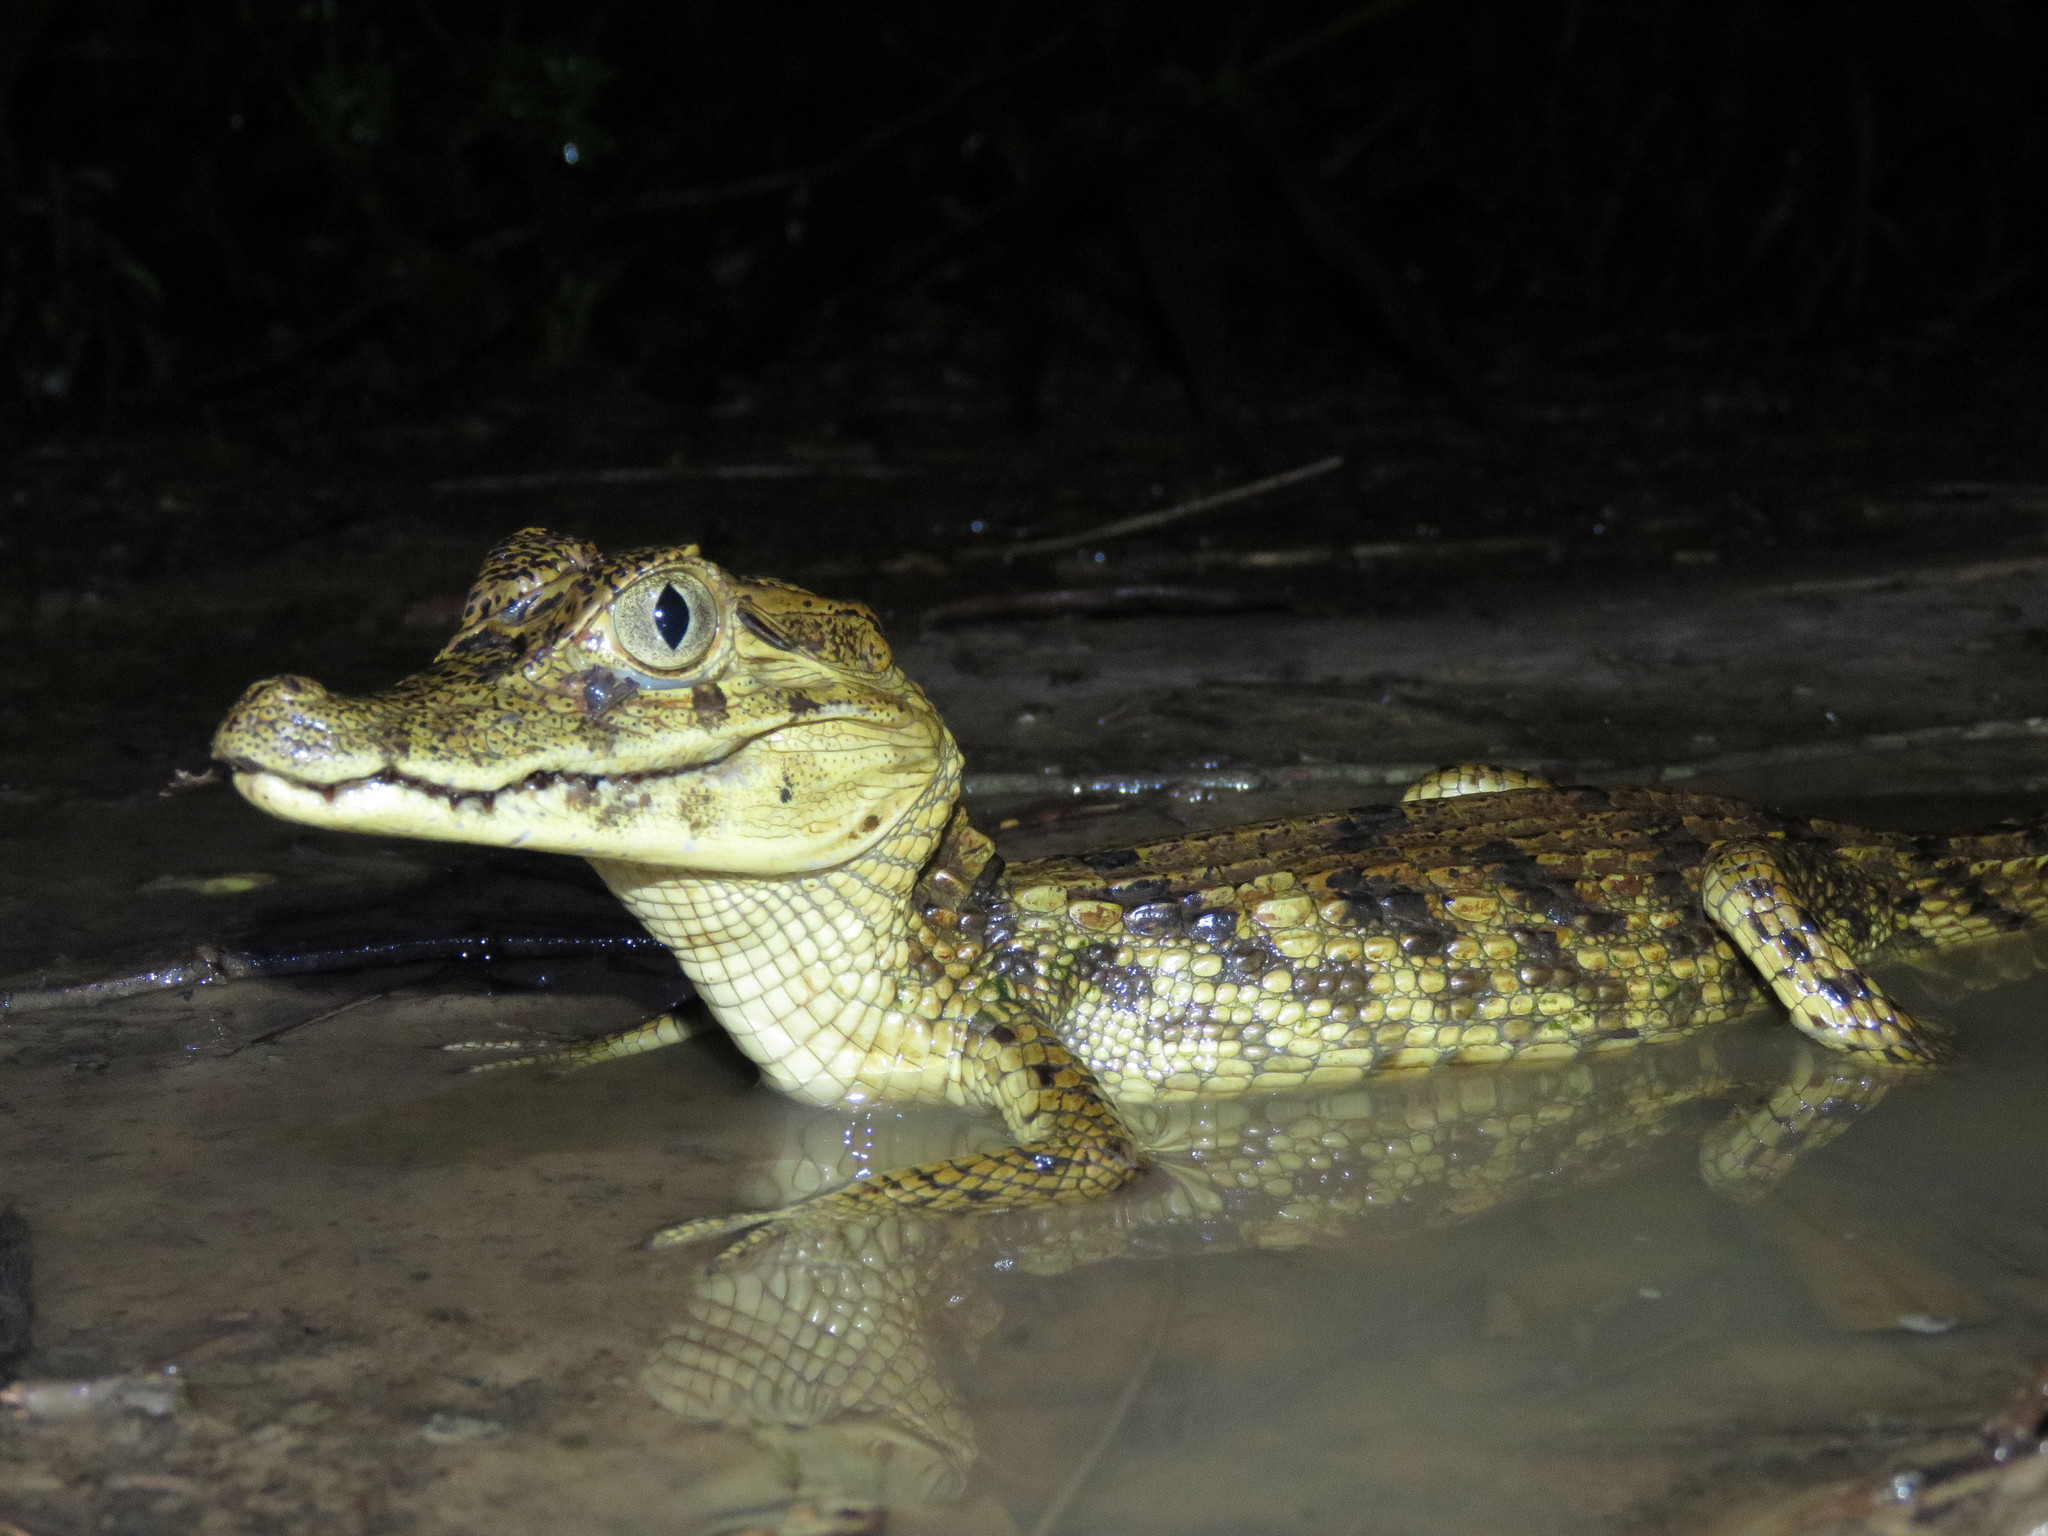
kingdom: Animalia
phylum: Chordata
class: Crocodylia
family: Alligatoridae
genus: Caiman
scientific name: Caiman yacare
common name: Yacare caiman
